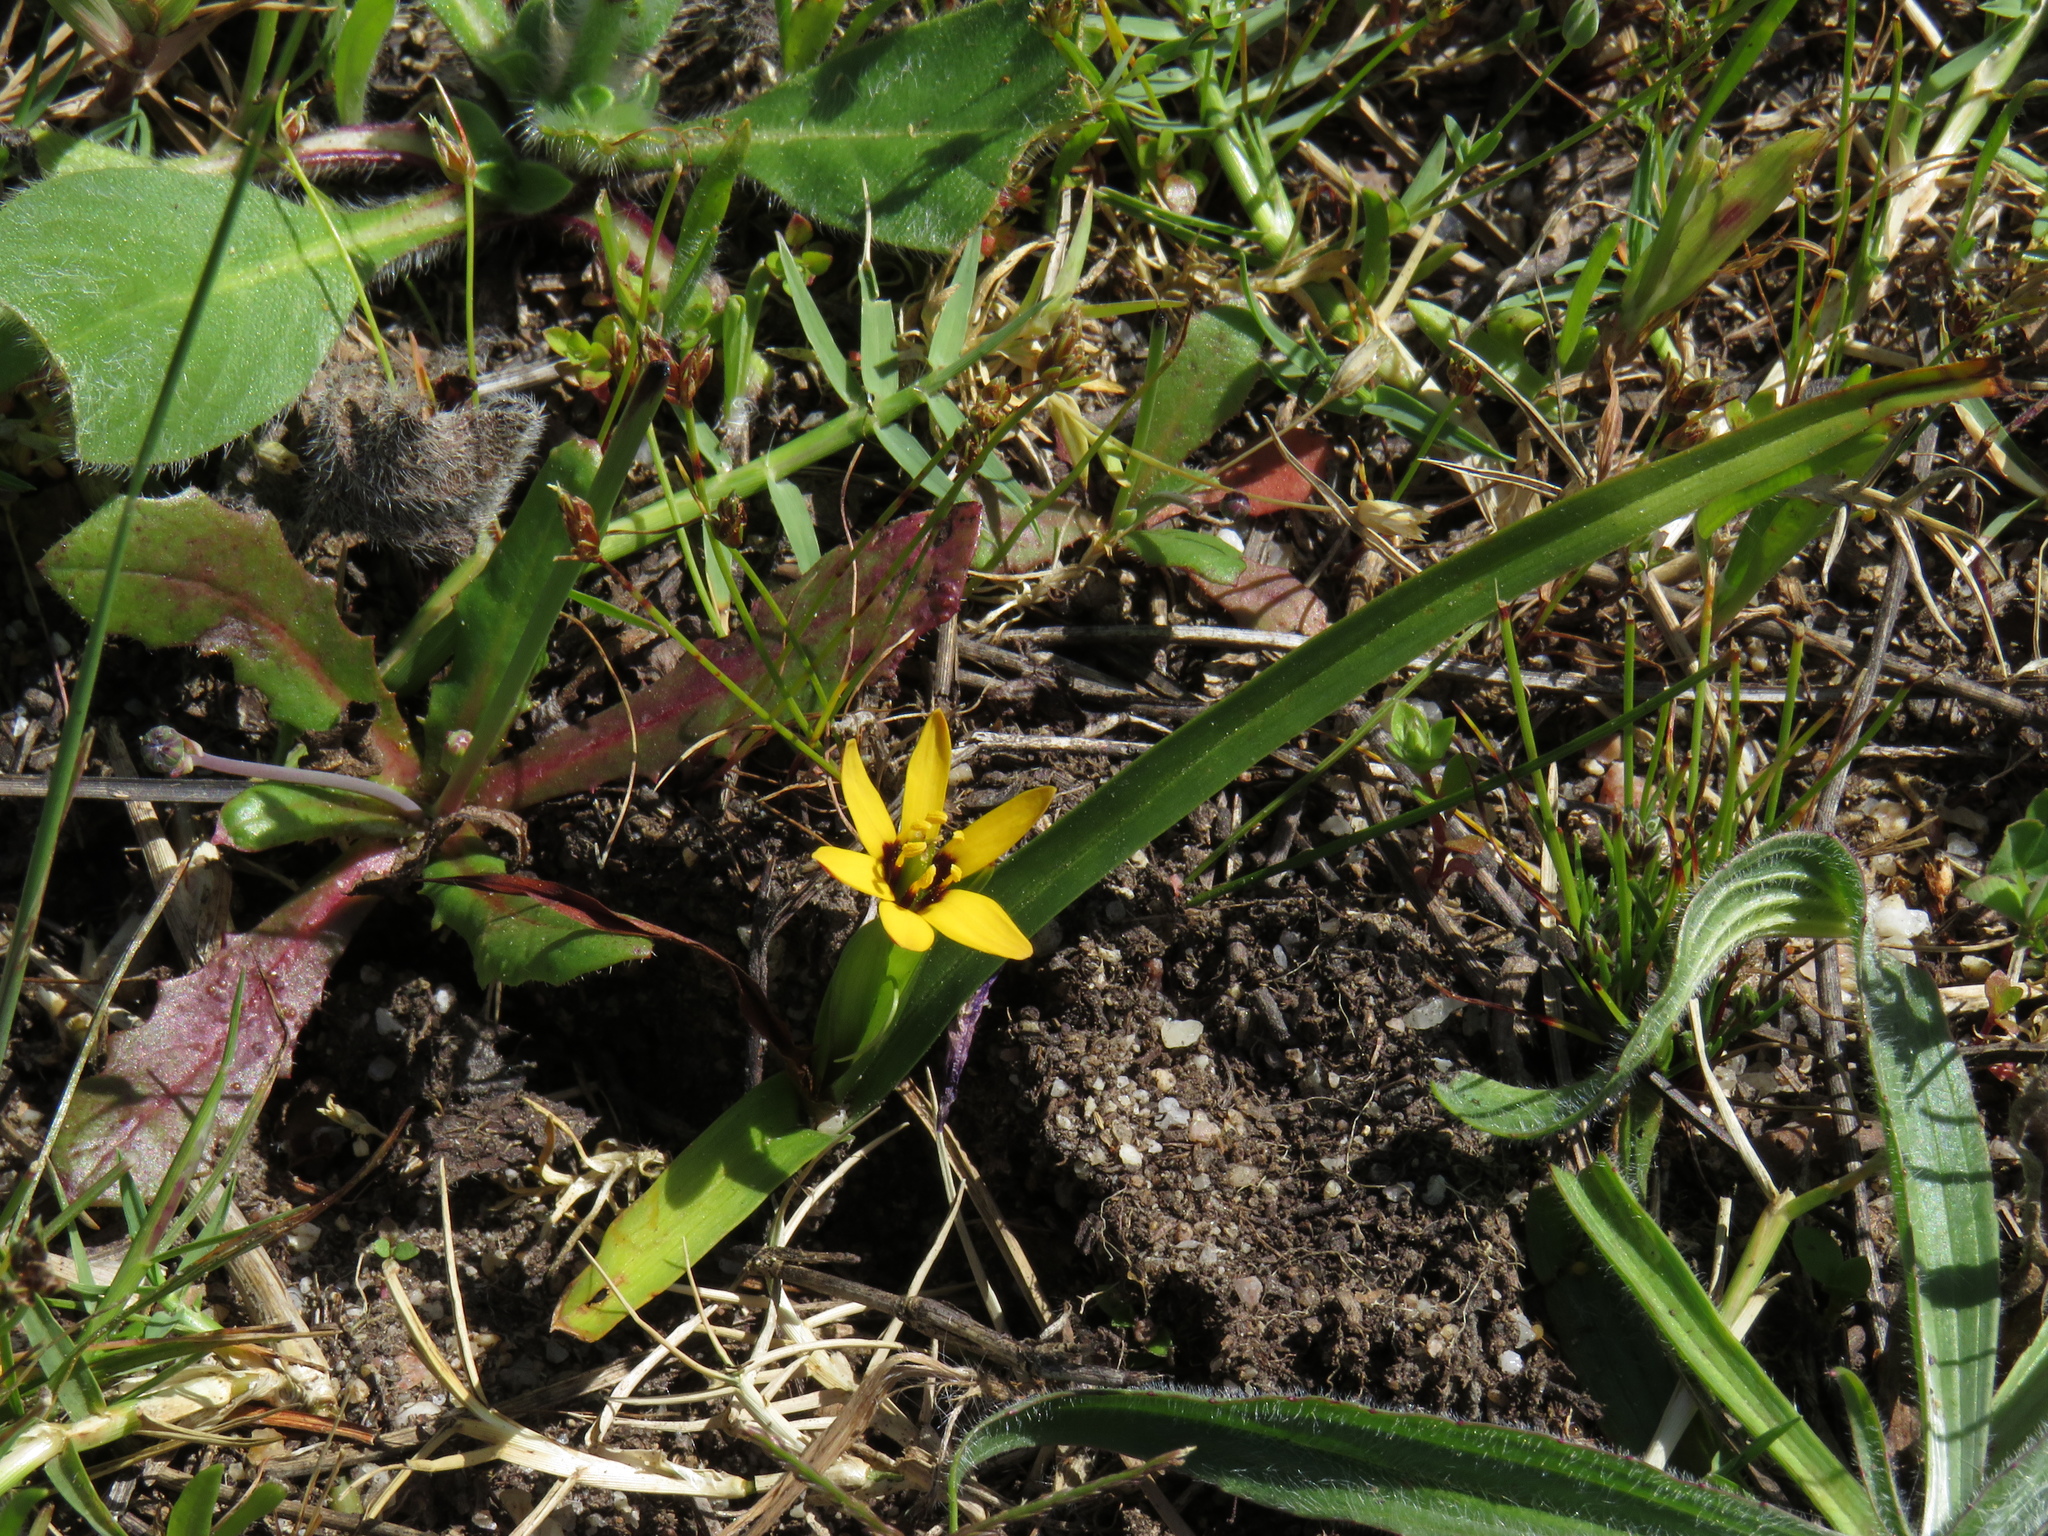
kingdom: Plantae
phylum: Tracheophyta
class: Liliopsida
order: Liliales
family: Colchicaceae
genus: Baeometra
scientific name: Baeometra uniflora
